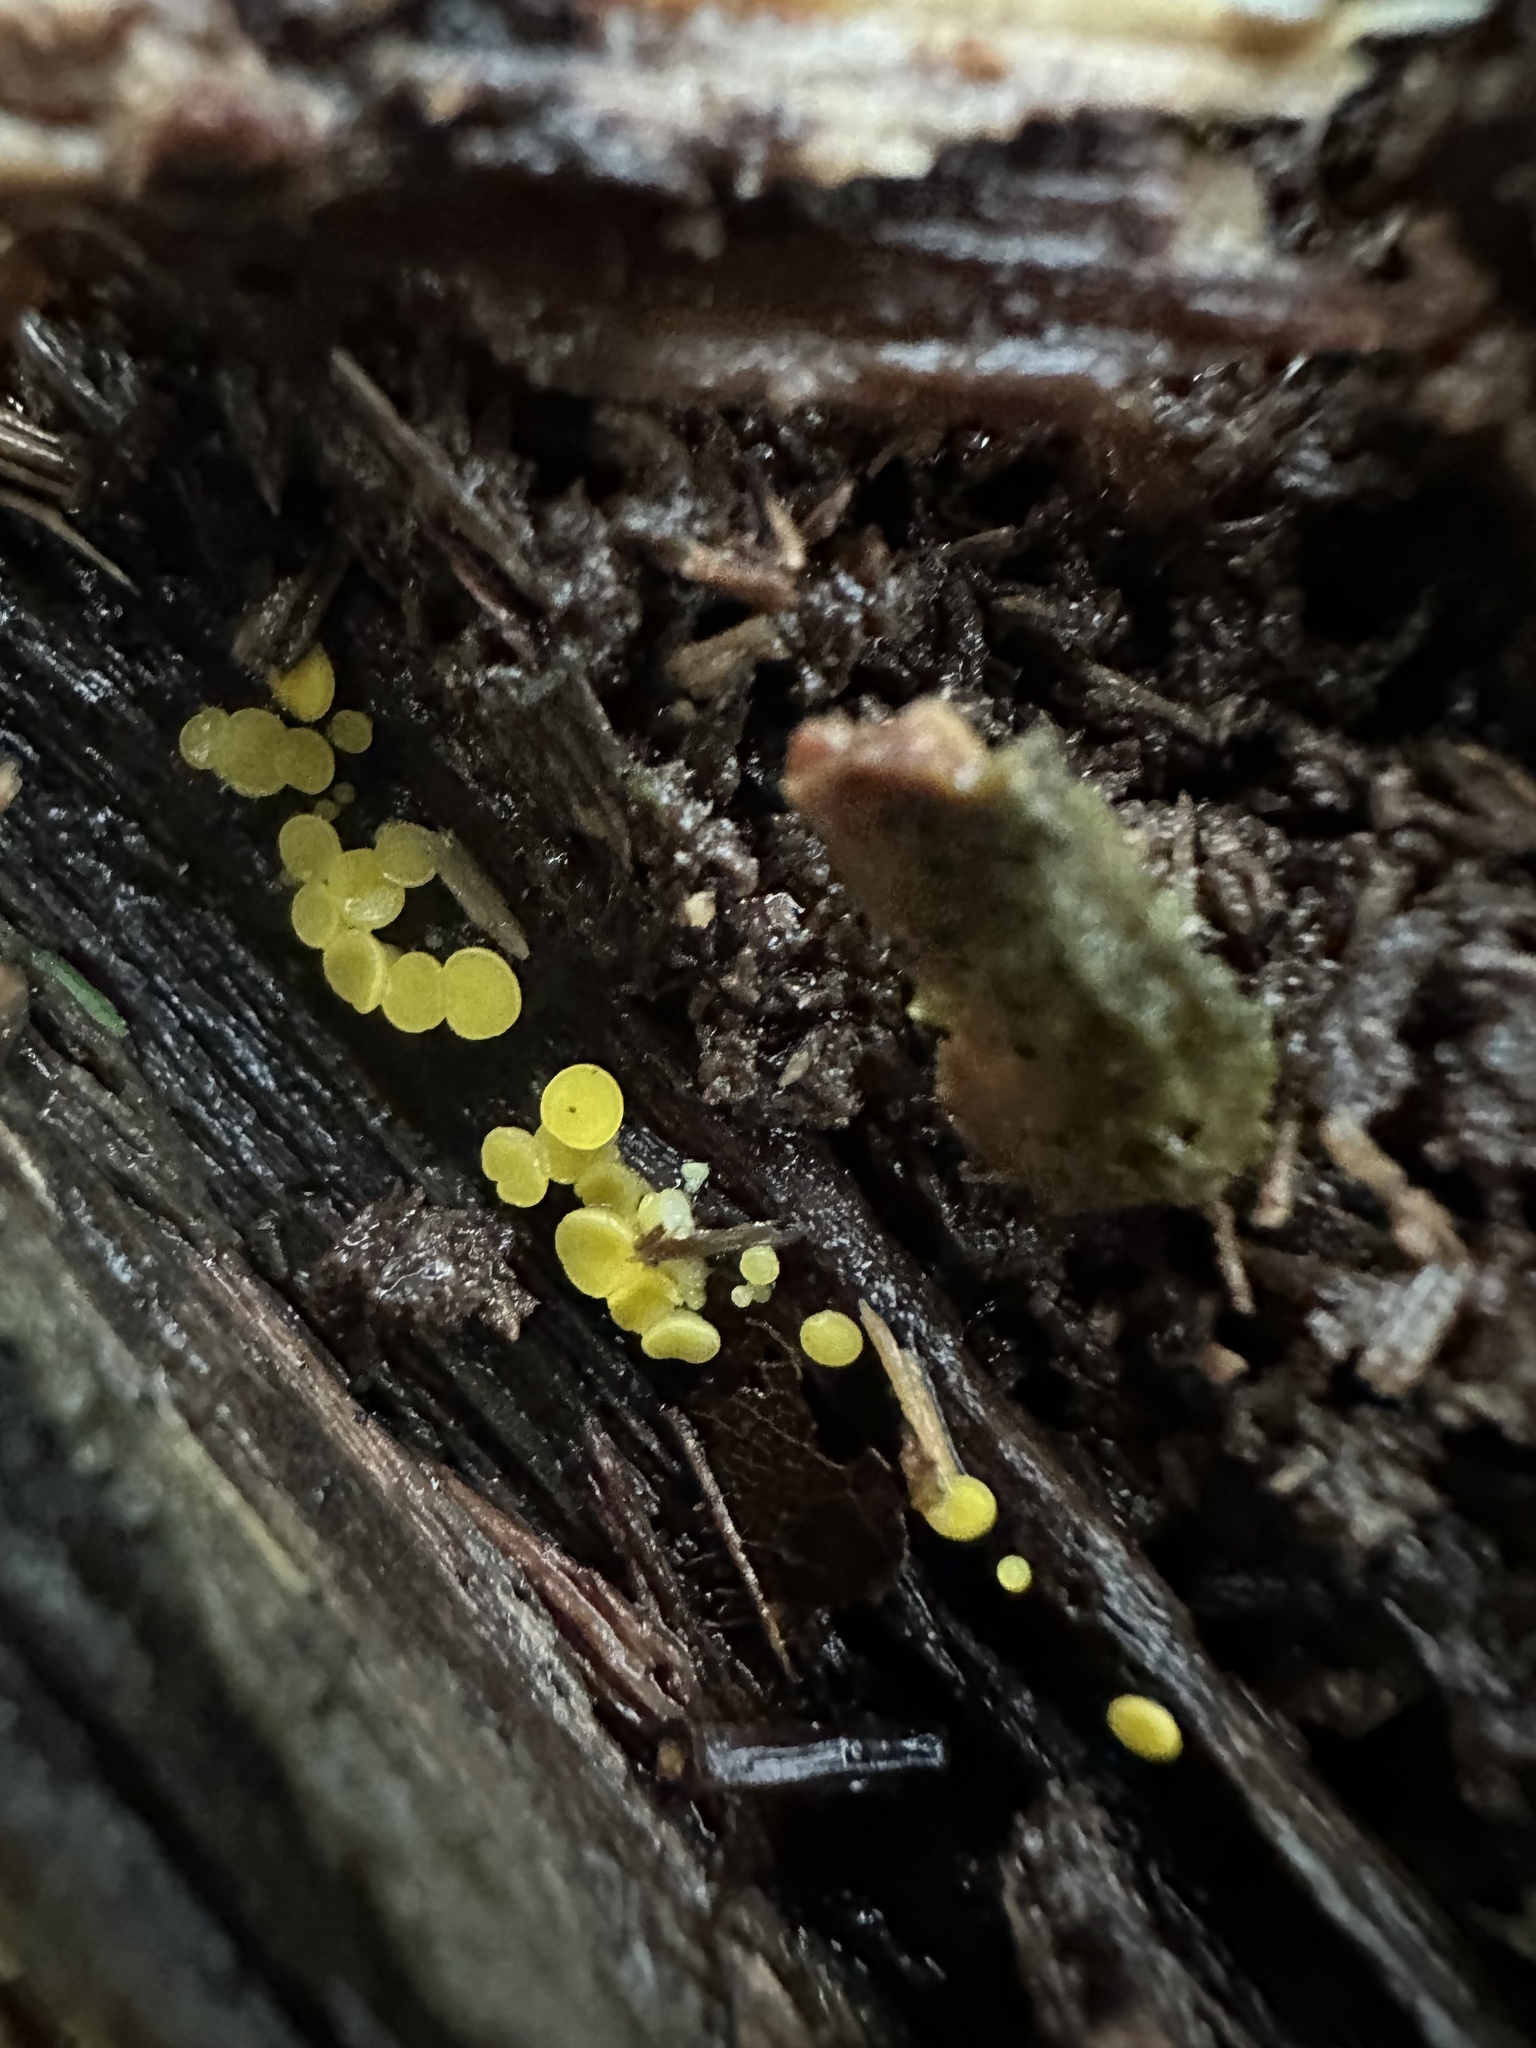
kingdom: Fungi
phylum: Ascomycota
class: Leotiomycetes
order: Helotiales
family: Pezizellaceae
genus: Calycina
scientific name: Calycina citrina
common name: Yellow fairy cups
